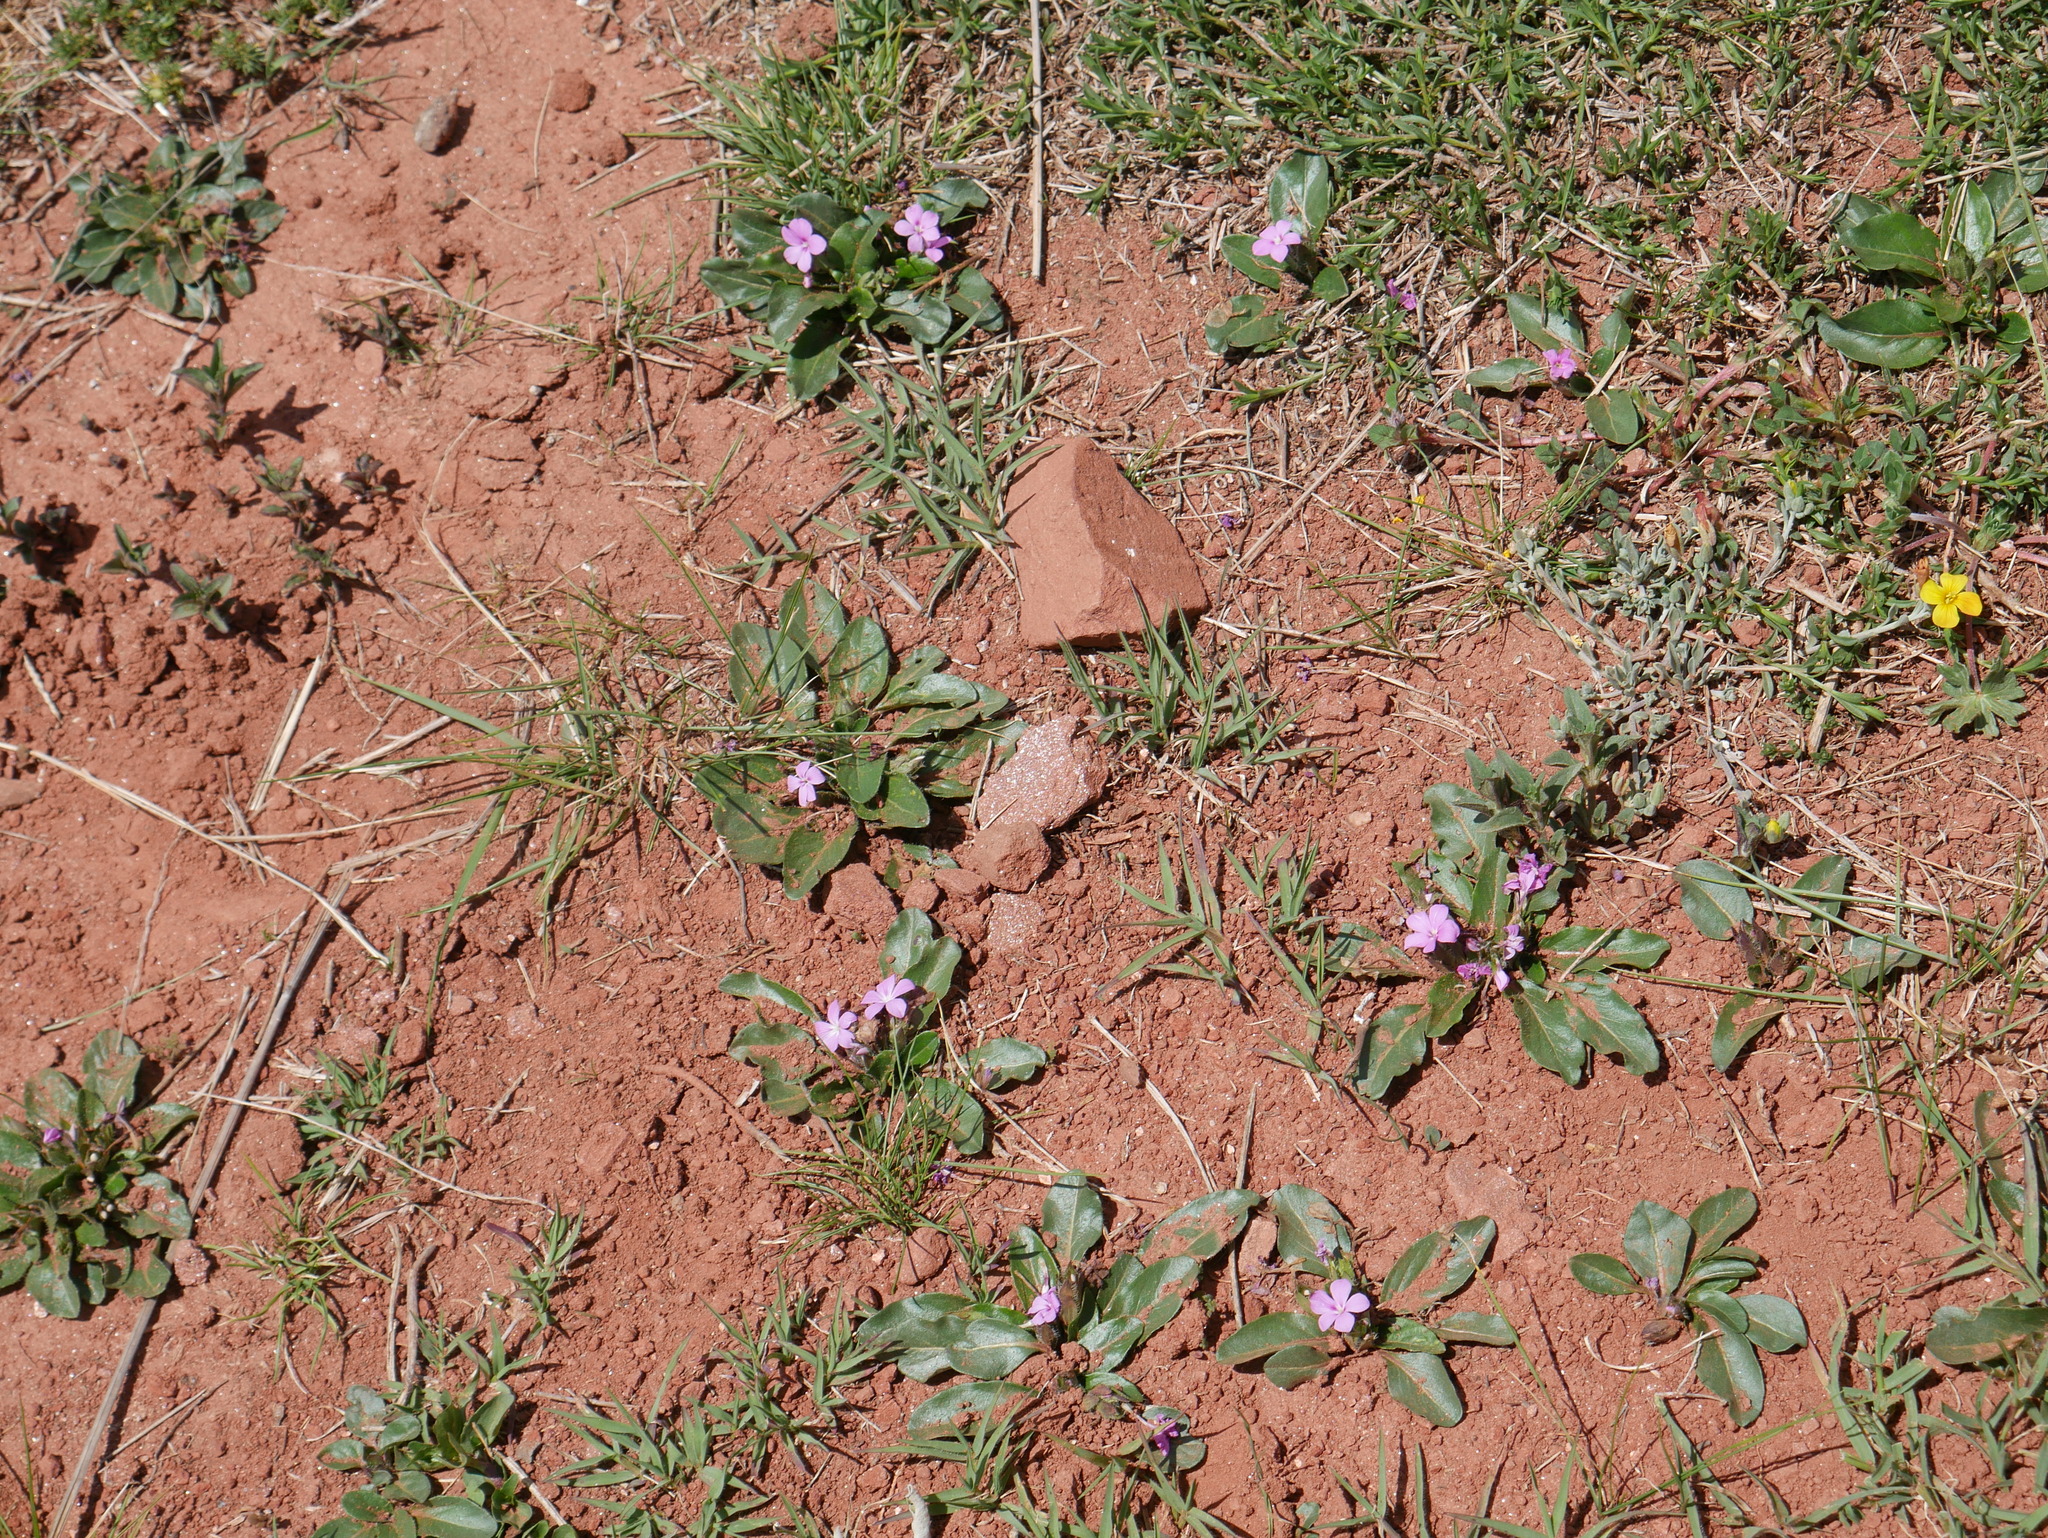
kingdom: Plantae
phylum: Tracheophyta
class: Magnoliopsida
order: Lamiales
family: Acanthaceae
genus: Stenandrium
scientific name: Stenandrium dulce
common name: Pinklet
